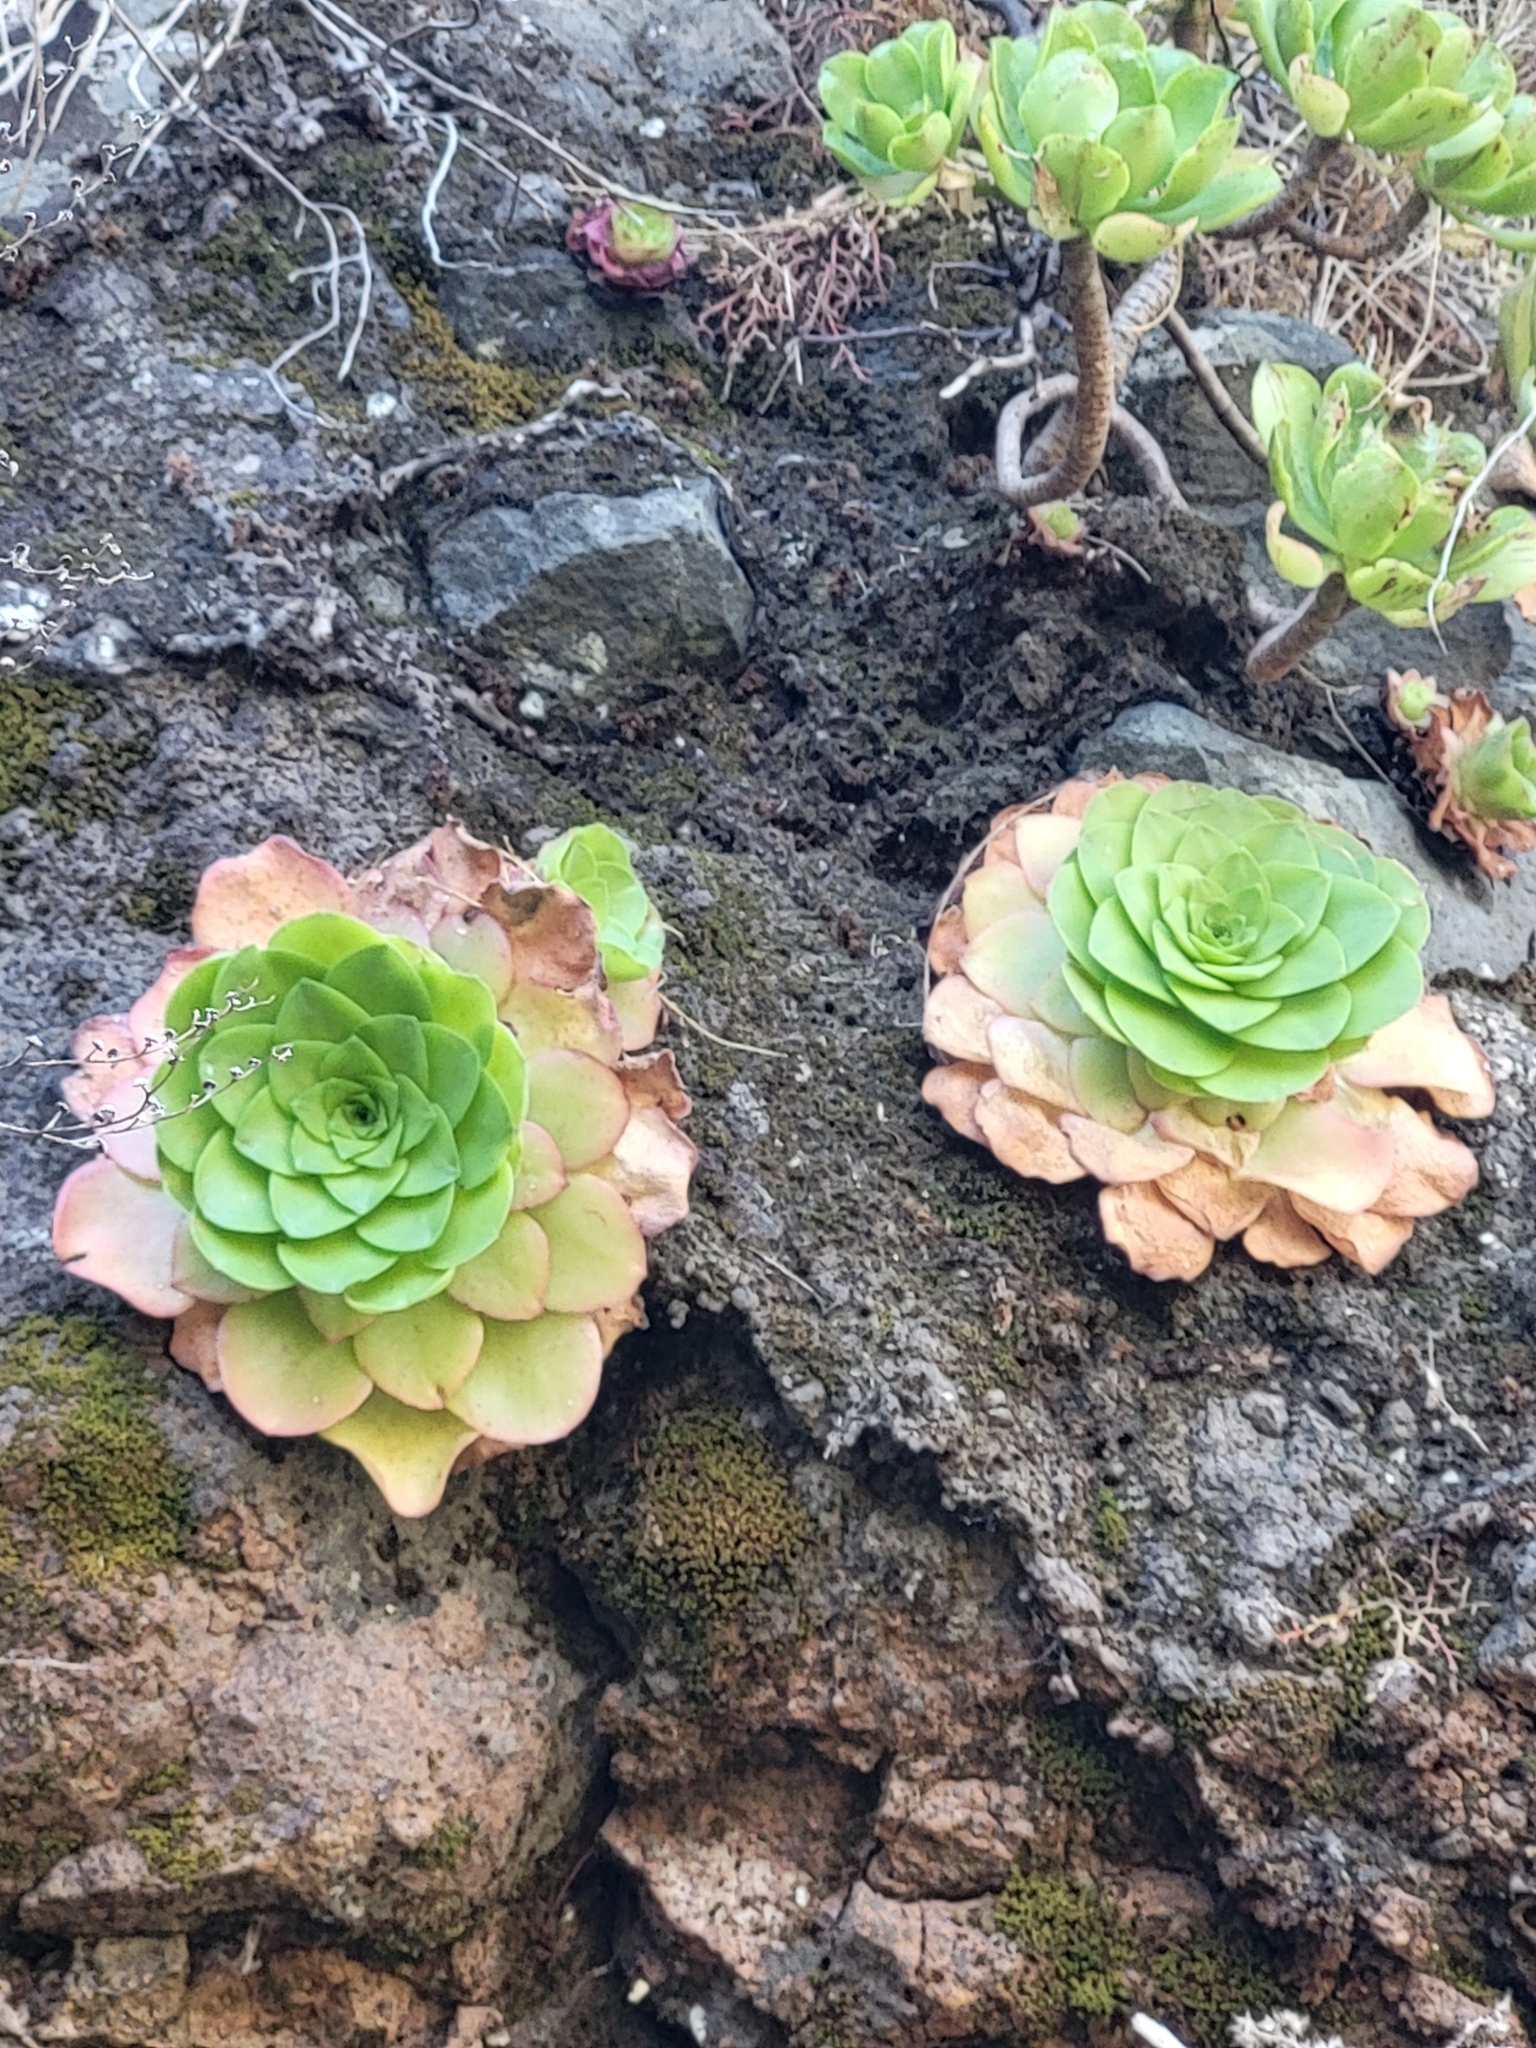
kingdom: Plantae
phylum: Tracheophyta
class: Magnoliopsida
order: Saxifragales
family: Crassulaceae
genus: Aeonium
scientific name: Aeonium glandulosum
